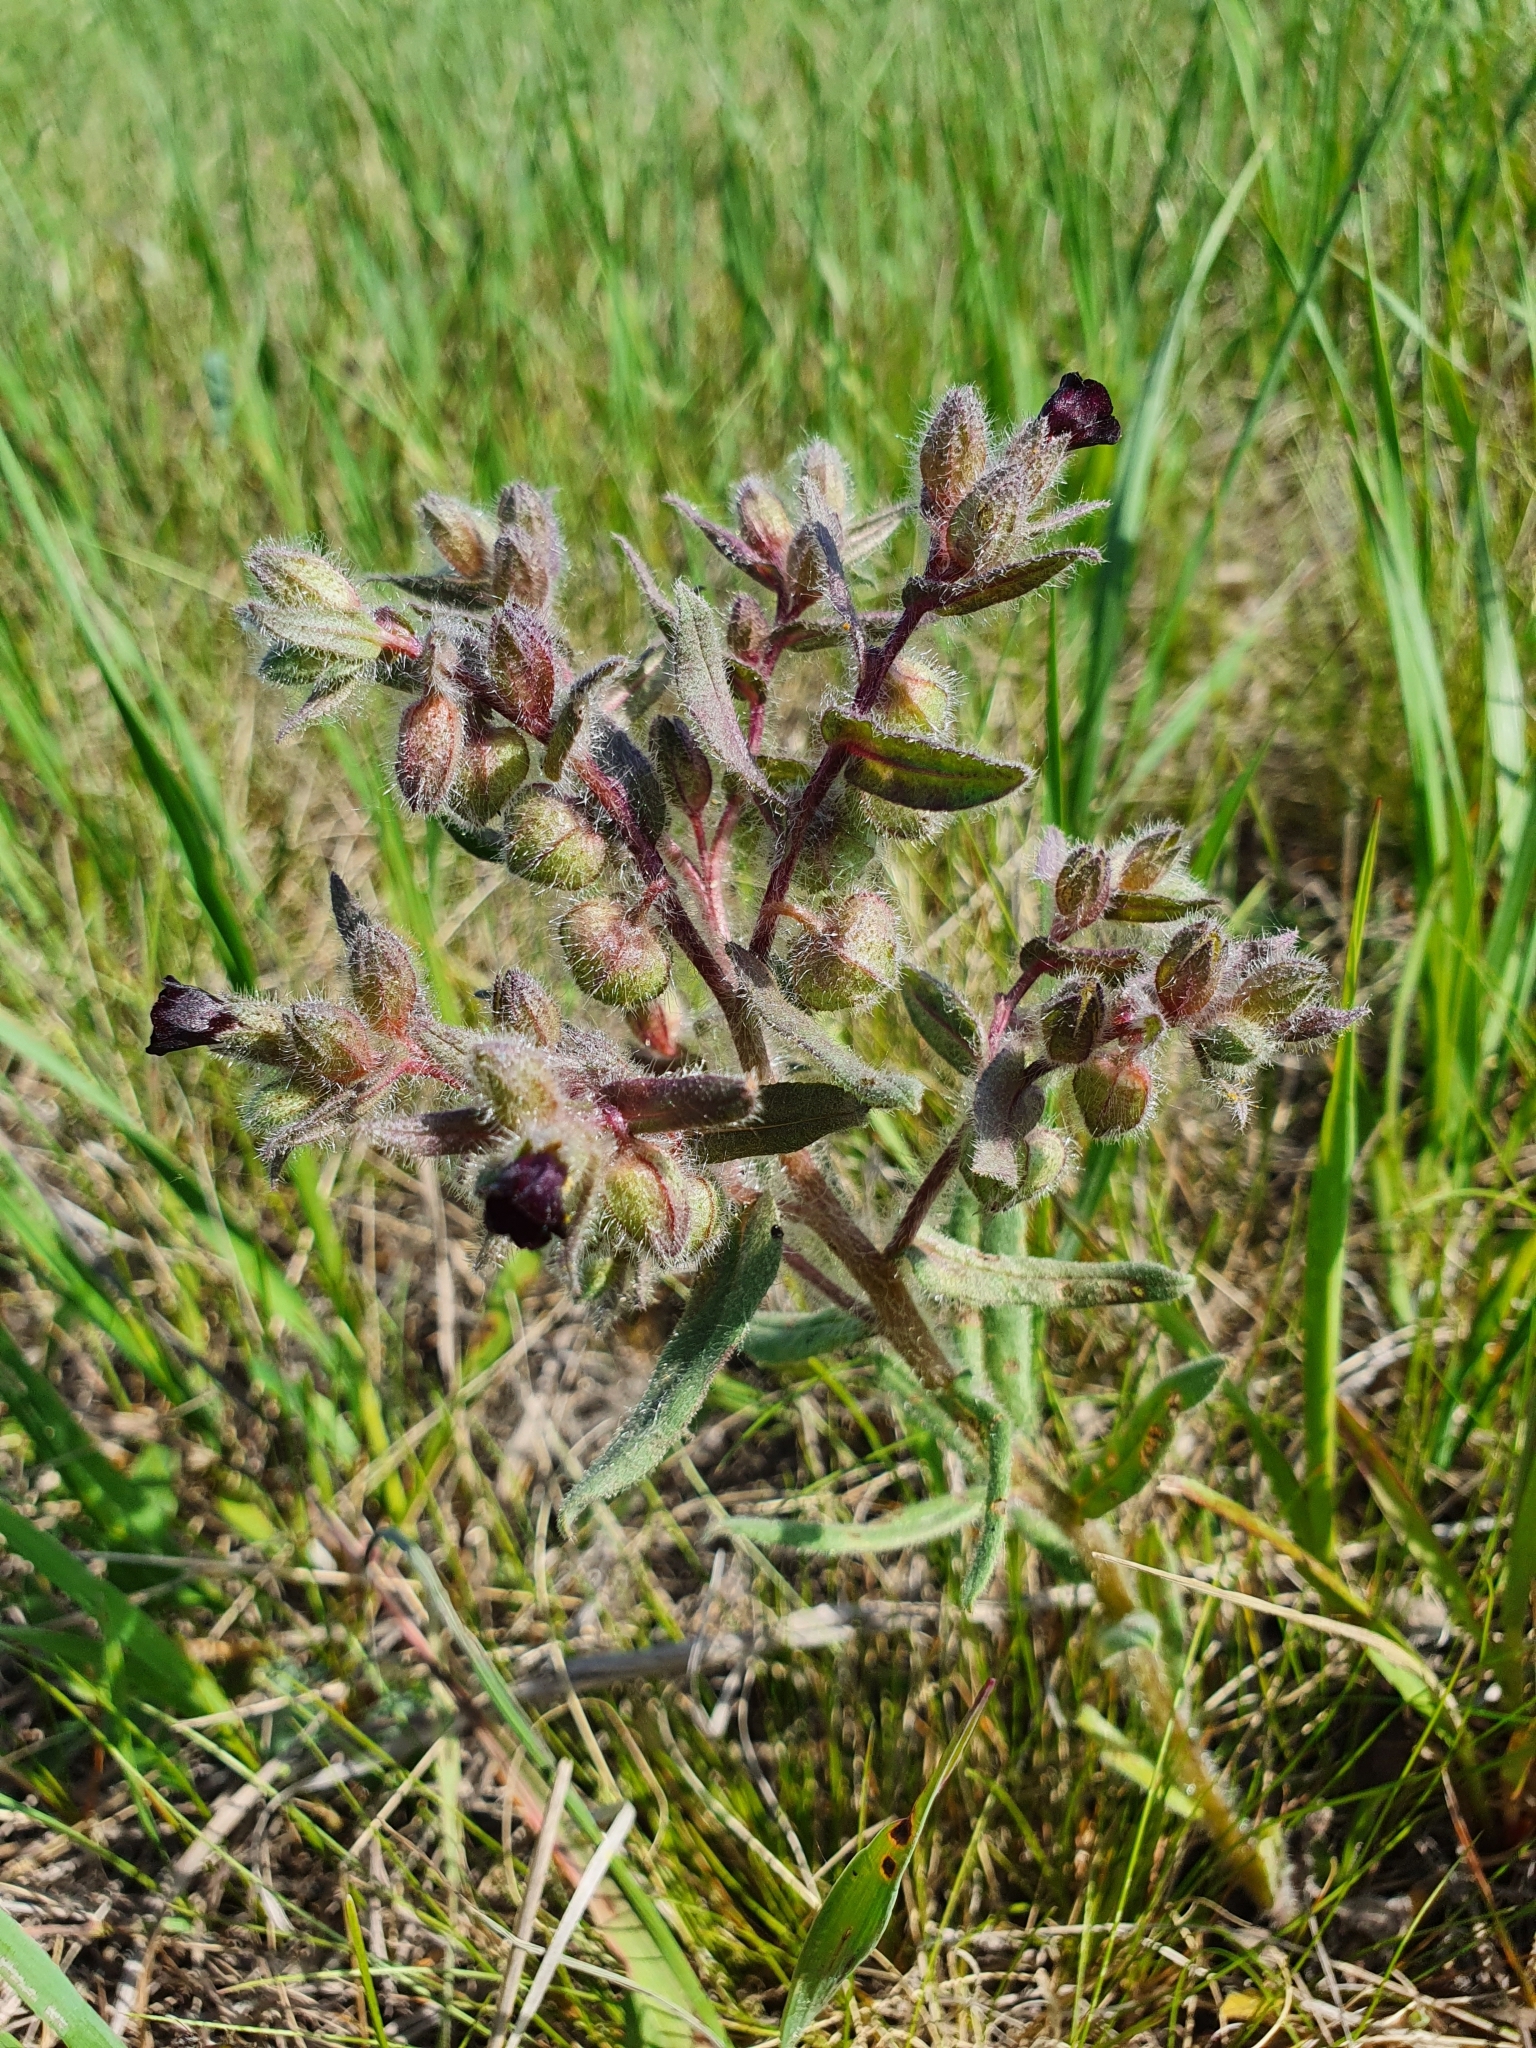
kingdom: Plantae
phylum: Tracheophyta
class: Magnoliopsida
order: Boraginales
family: Boraginaceae
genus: Nonea
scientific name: Nonea pulla
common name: Brown nonea
